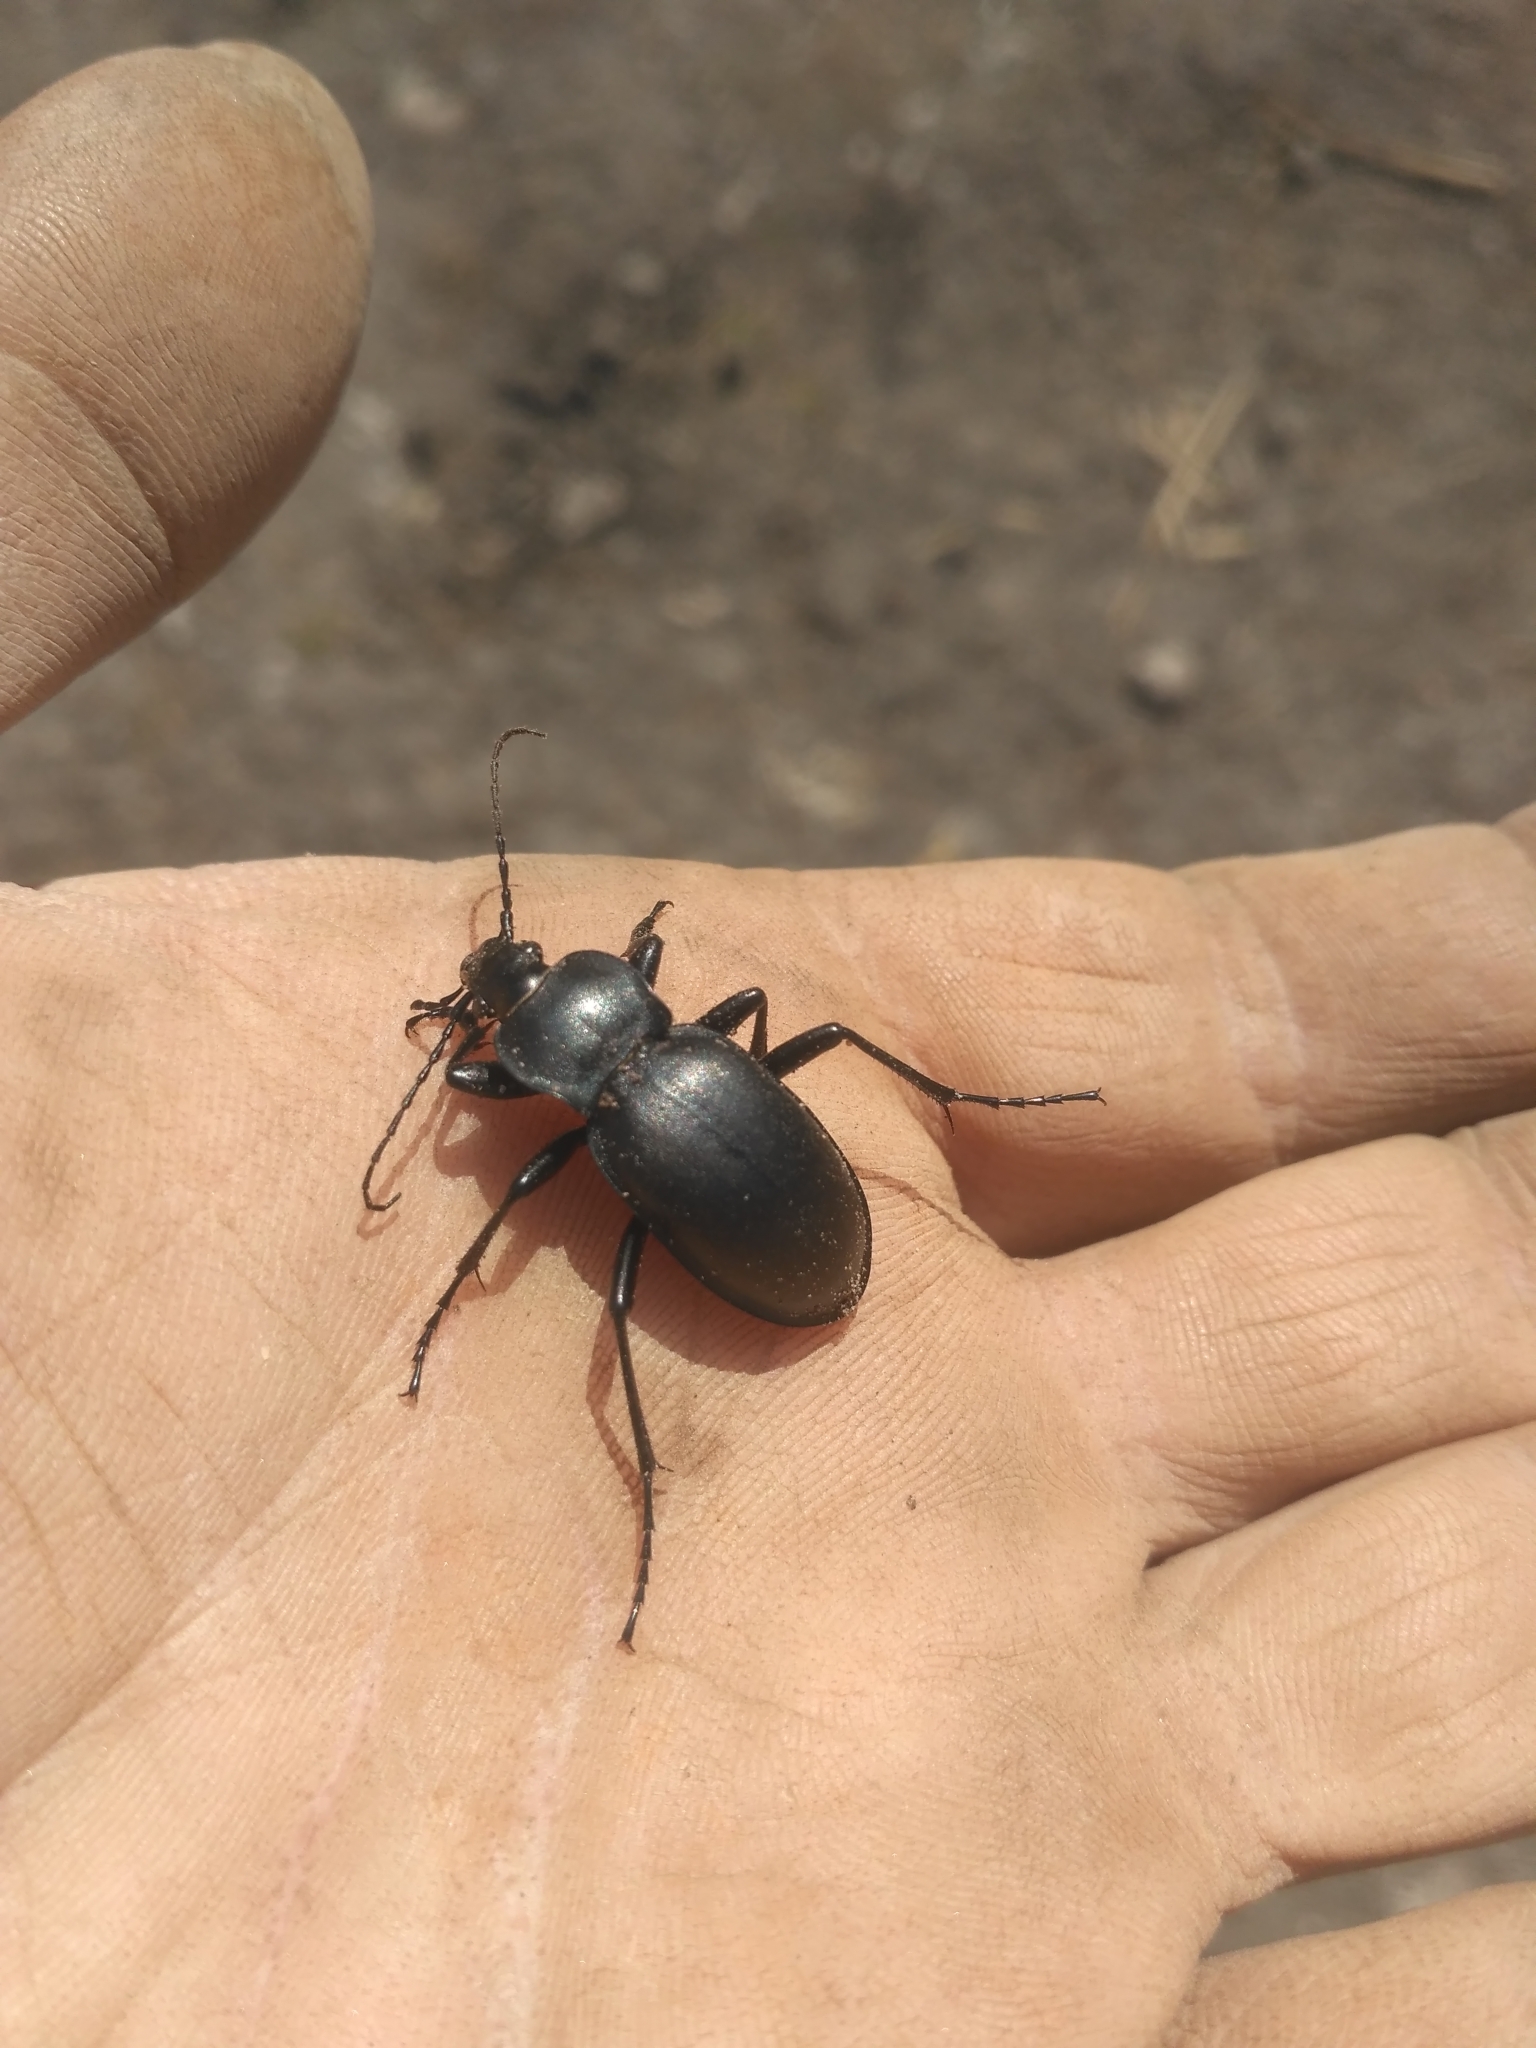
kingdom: Animalia
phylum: Arthropoda
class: Insecta
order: Coleoptera
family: Carabidae
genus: Carabus
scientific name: Carabus glabratus
